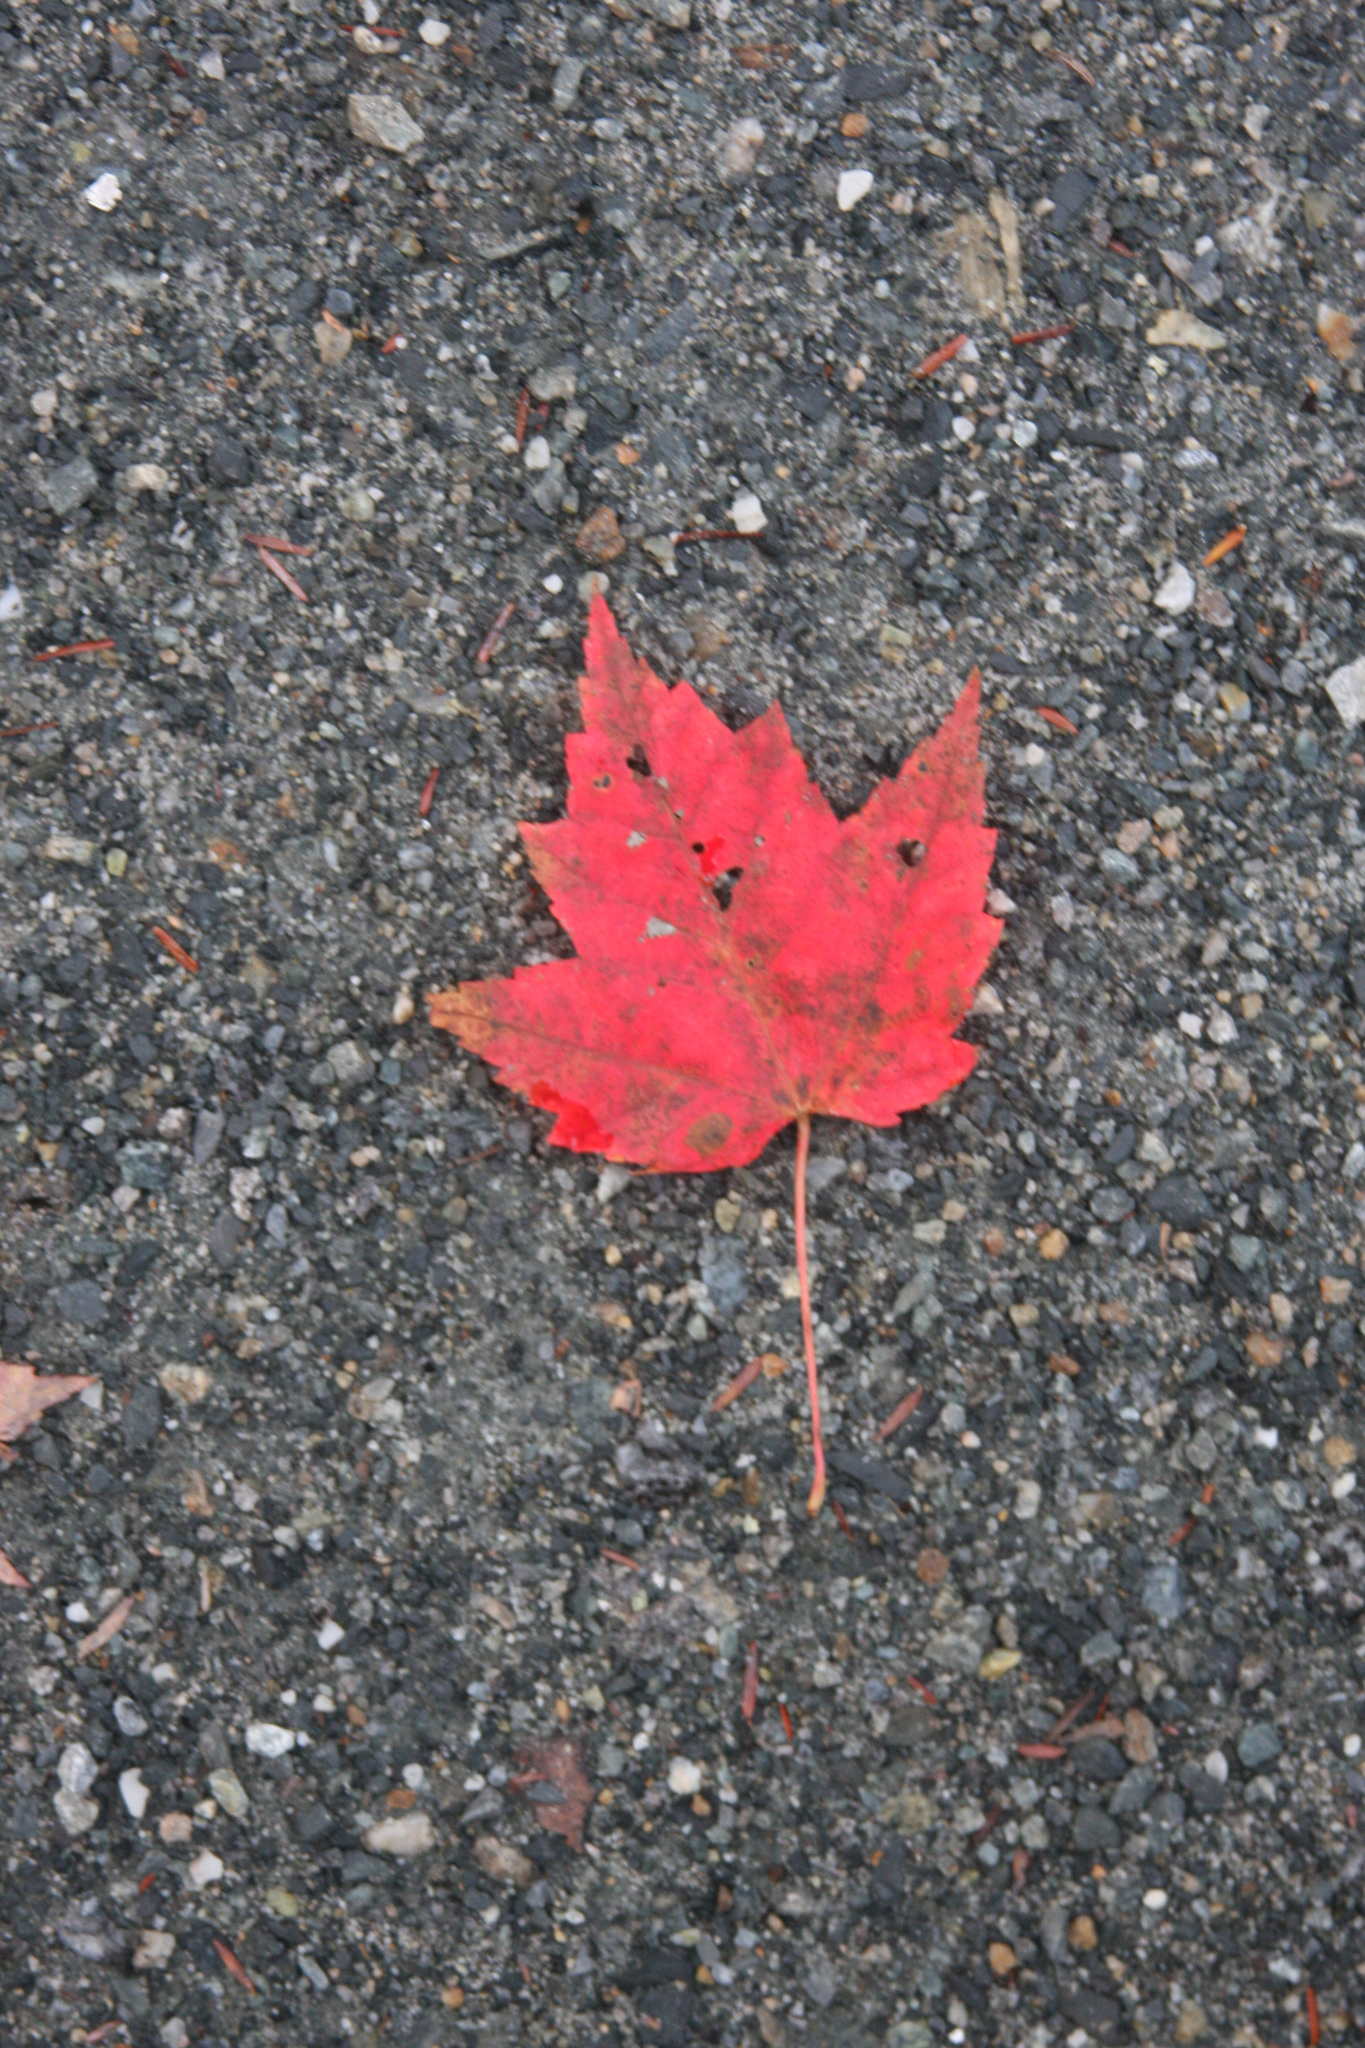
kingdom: Plantae
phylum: Tracheophyta
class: Magnoliopsida
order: Sapindales
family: Sapindaceae
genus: Acer
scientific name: Acer rubrum
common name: Red maple
